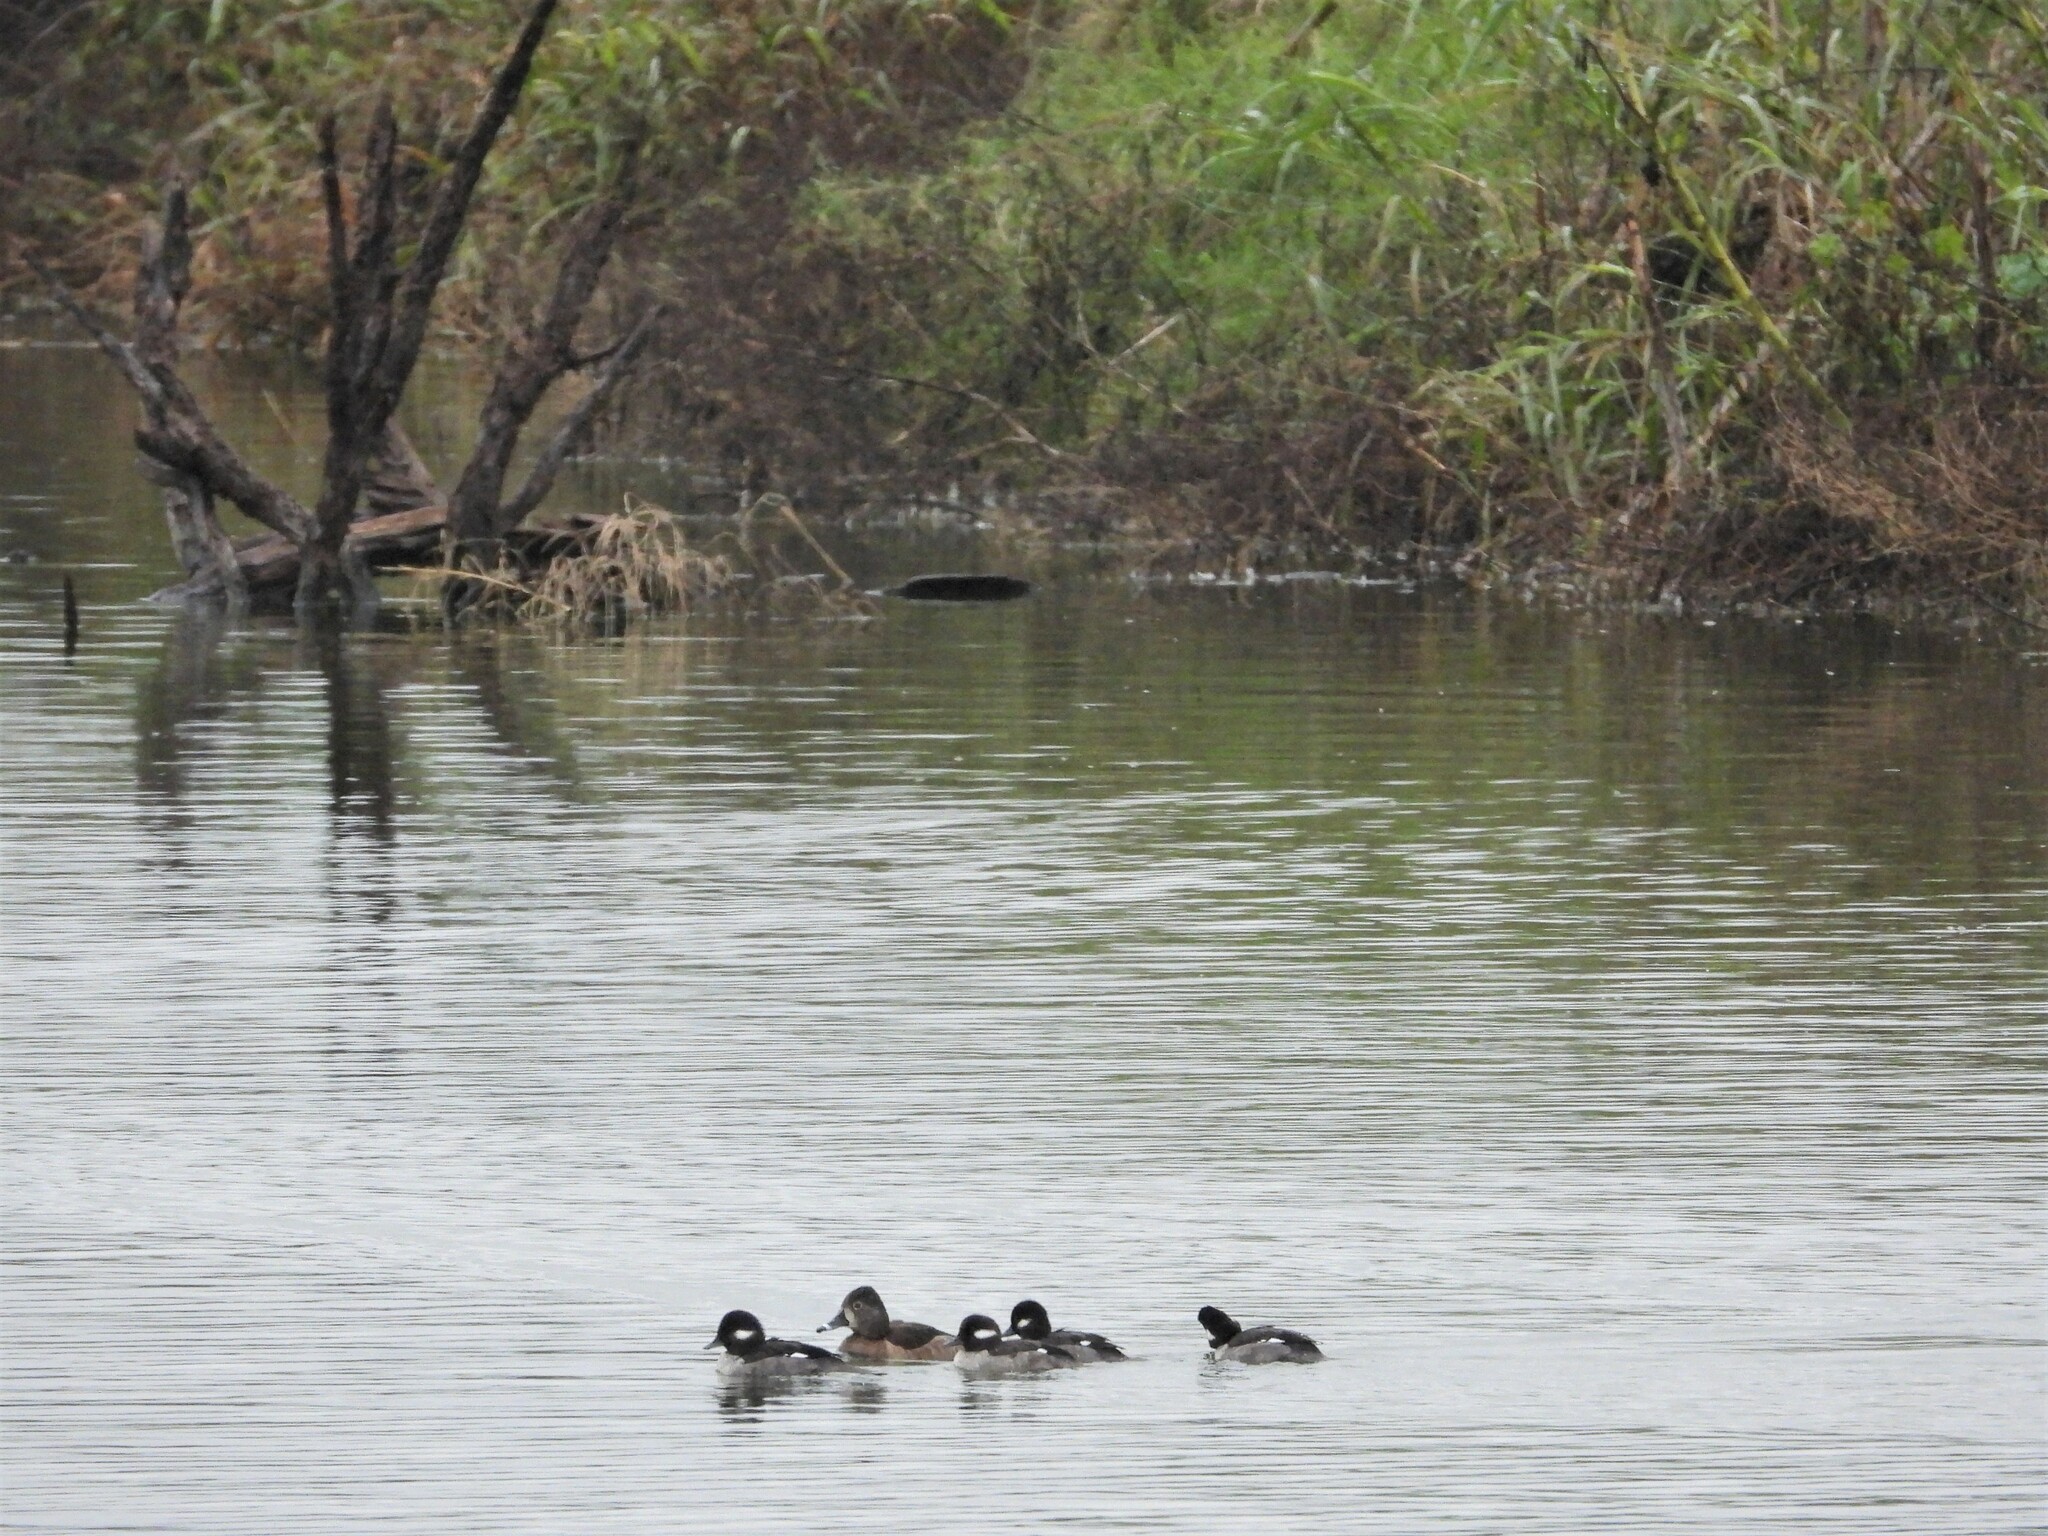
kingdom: Animalia
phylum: Chordata
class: Aves
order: Anseriformes
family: Anatidae
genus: Bucephala
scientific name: Bucephala albeola
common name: Bufflehead
